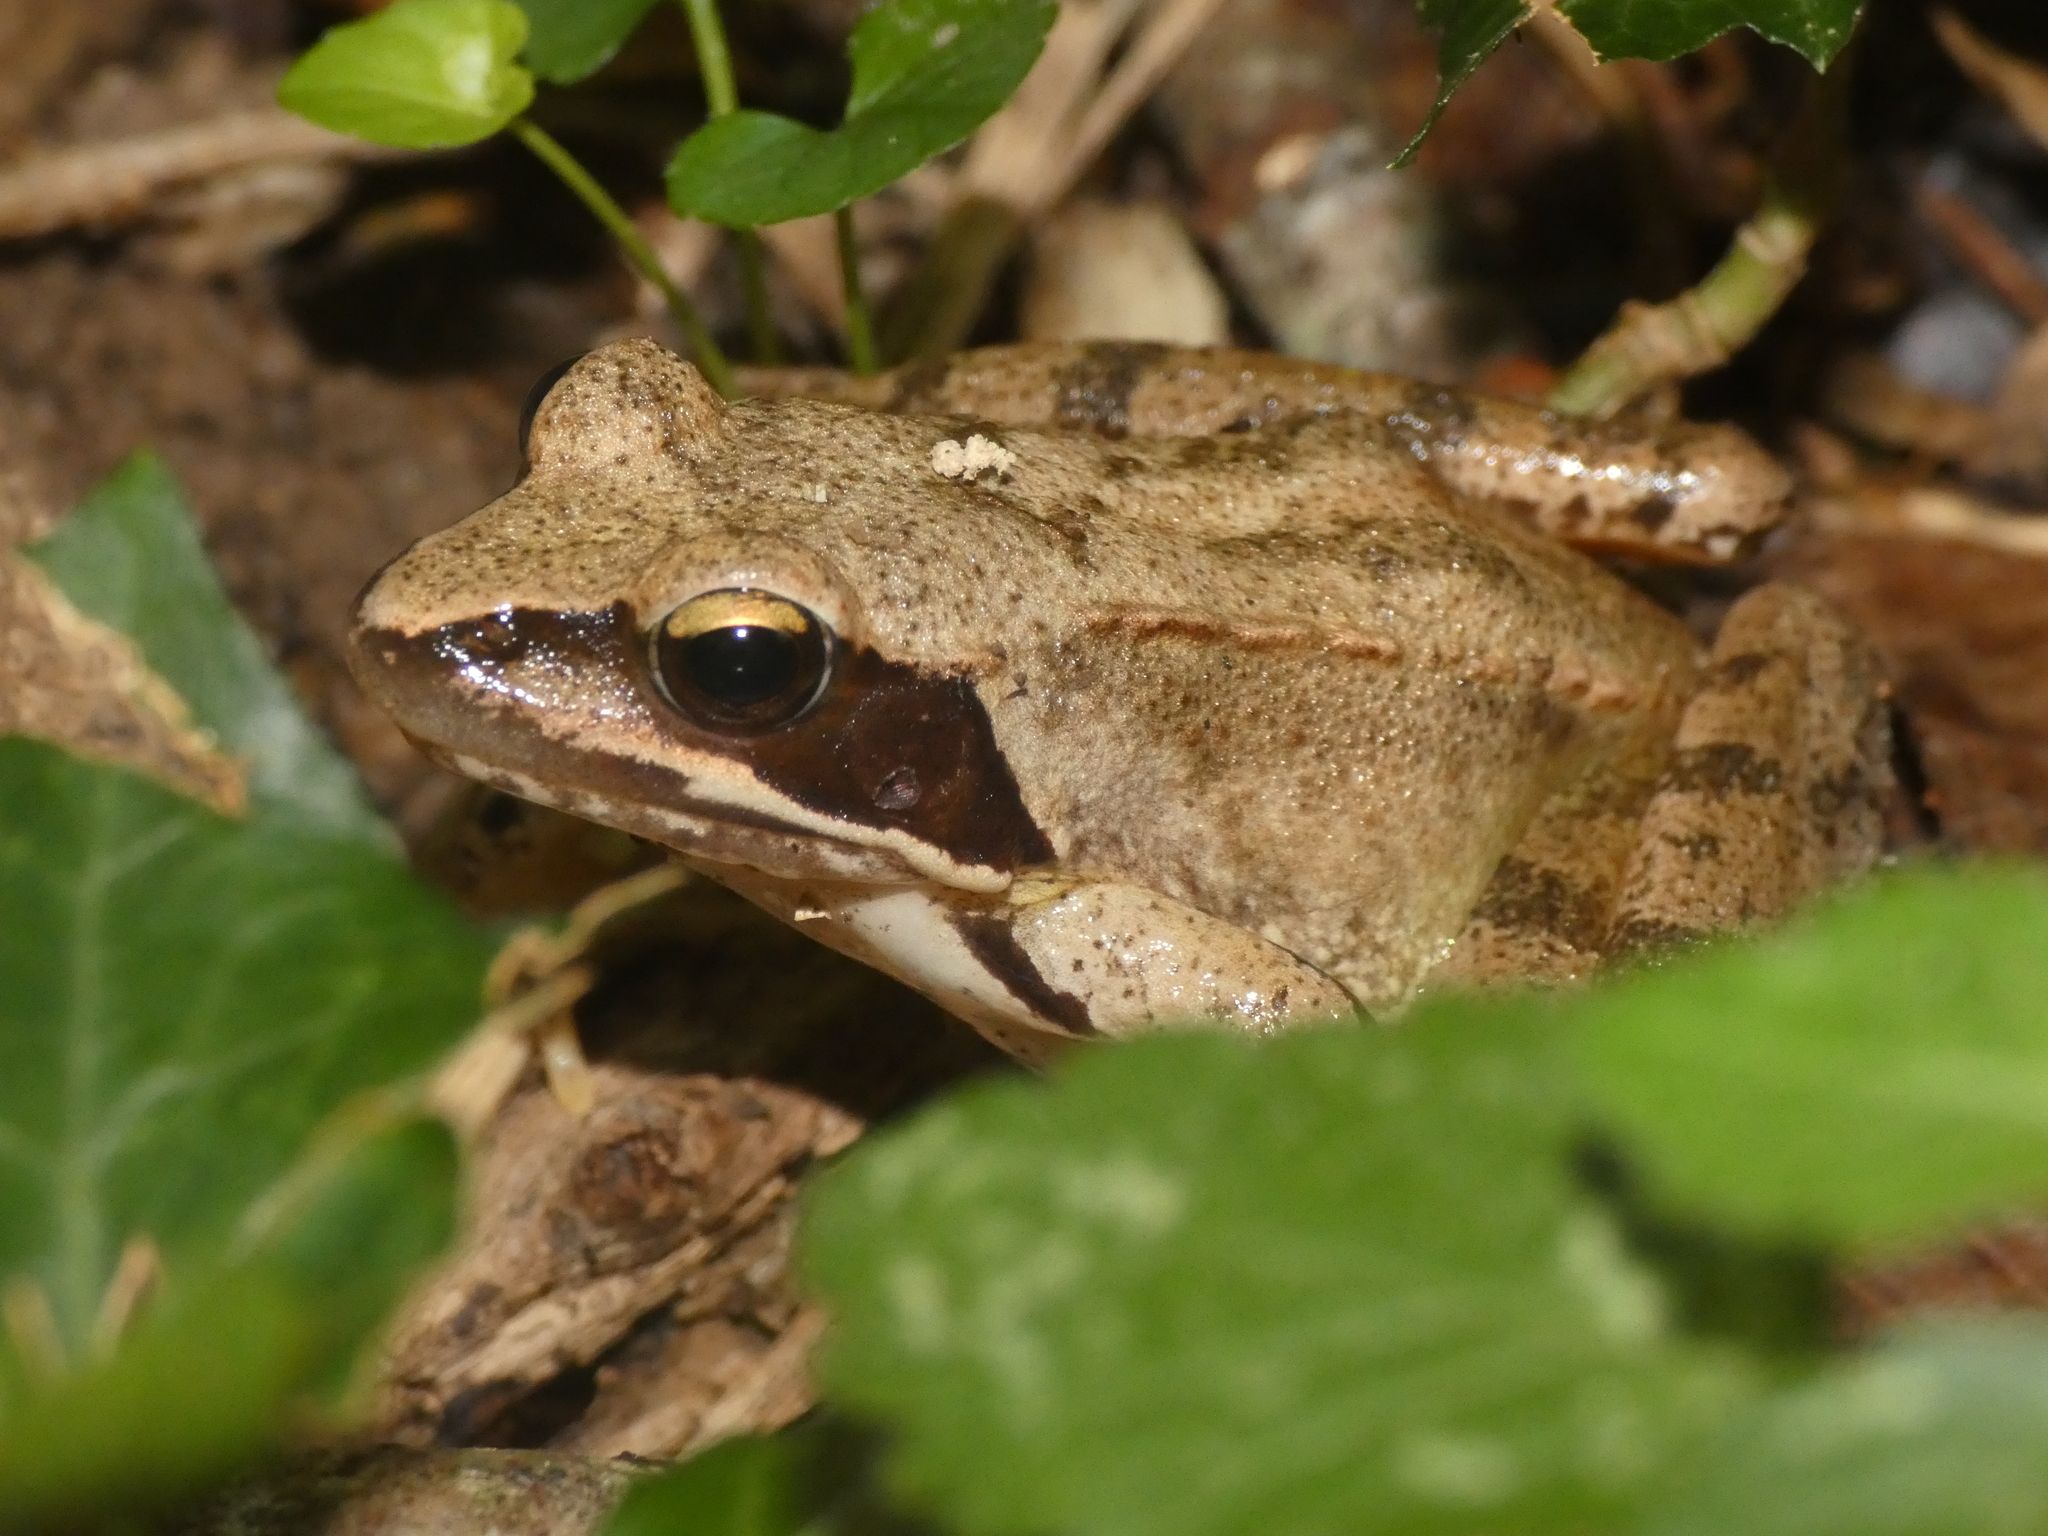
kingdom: Animalia
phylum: Chordata
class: Amphibia
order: Anura
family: Ranidae
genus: Rana
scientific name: Rana dalmatina
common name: Agile frog
